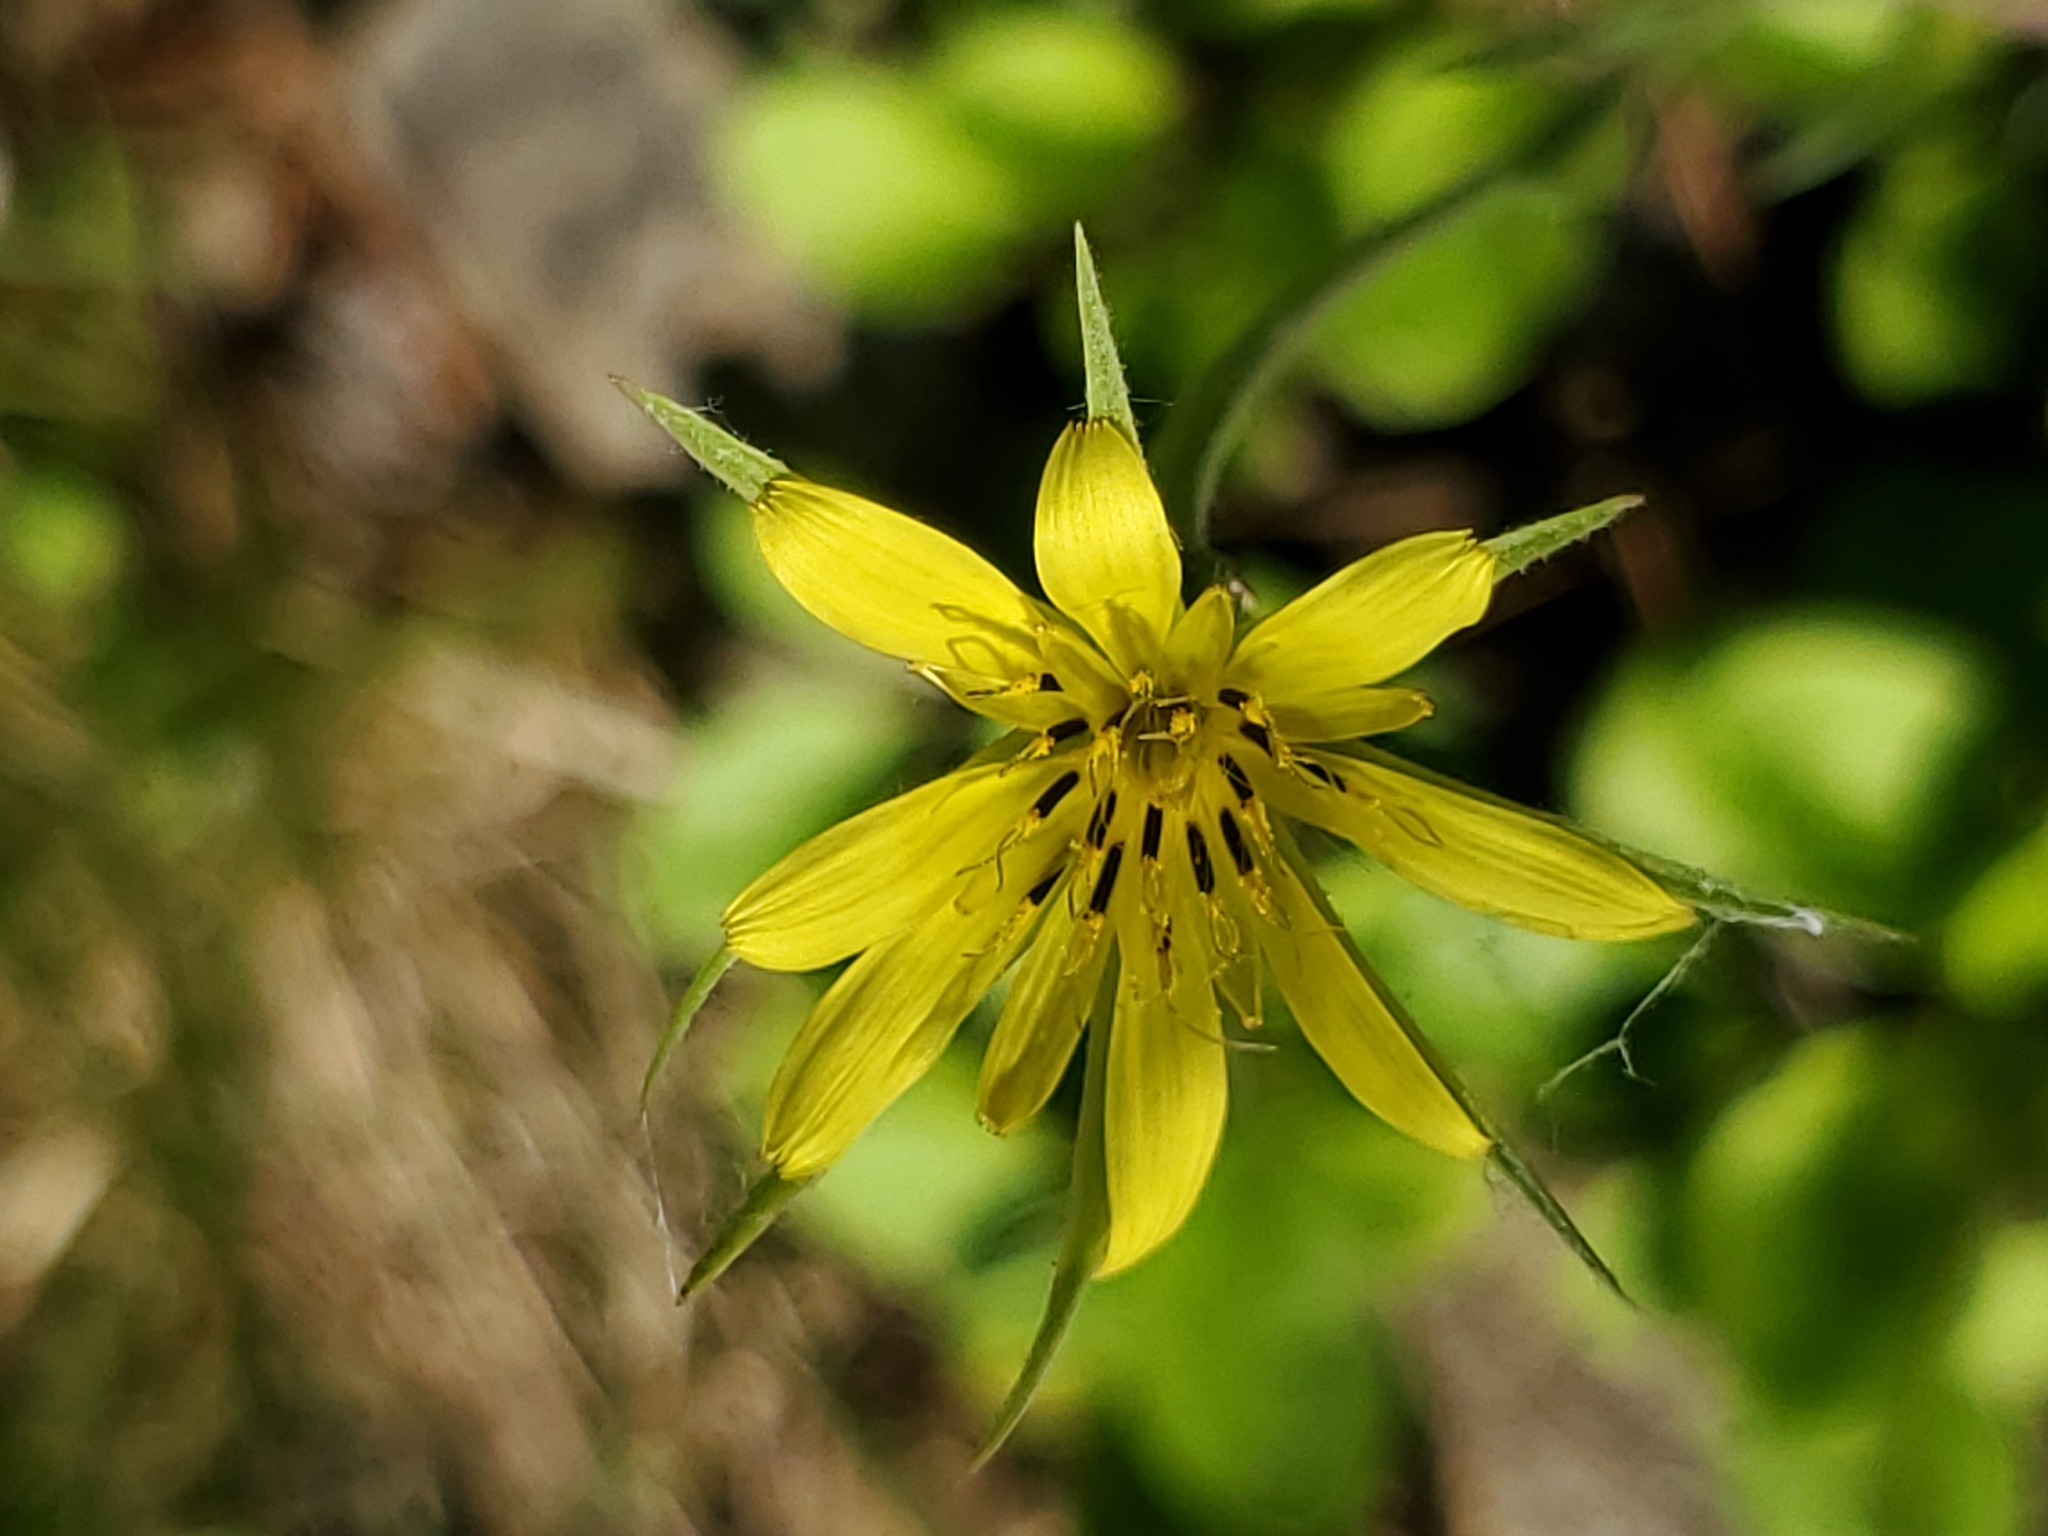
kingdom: Plantae
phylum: Tracheophyta
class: Magnoliopsida
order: Asterales
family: Asteraceae
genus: Tragopogon
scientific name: Tragopogon dubius
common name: Yellow salsify
